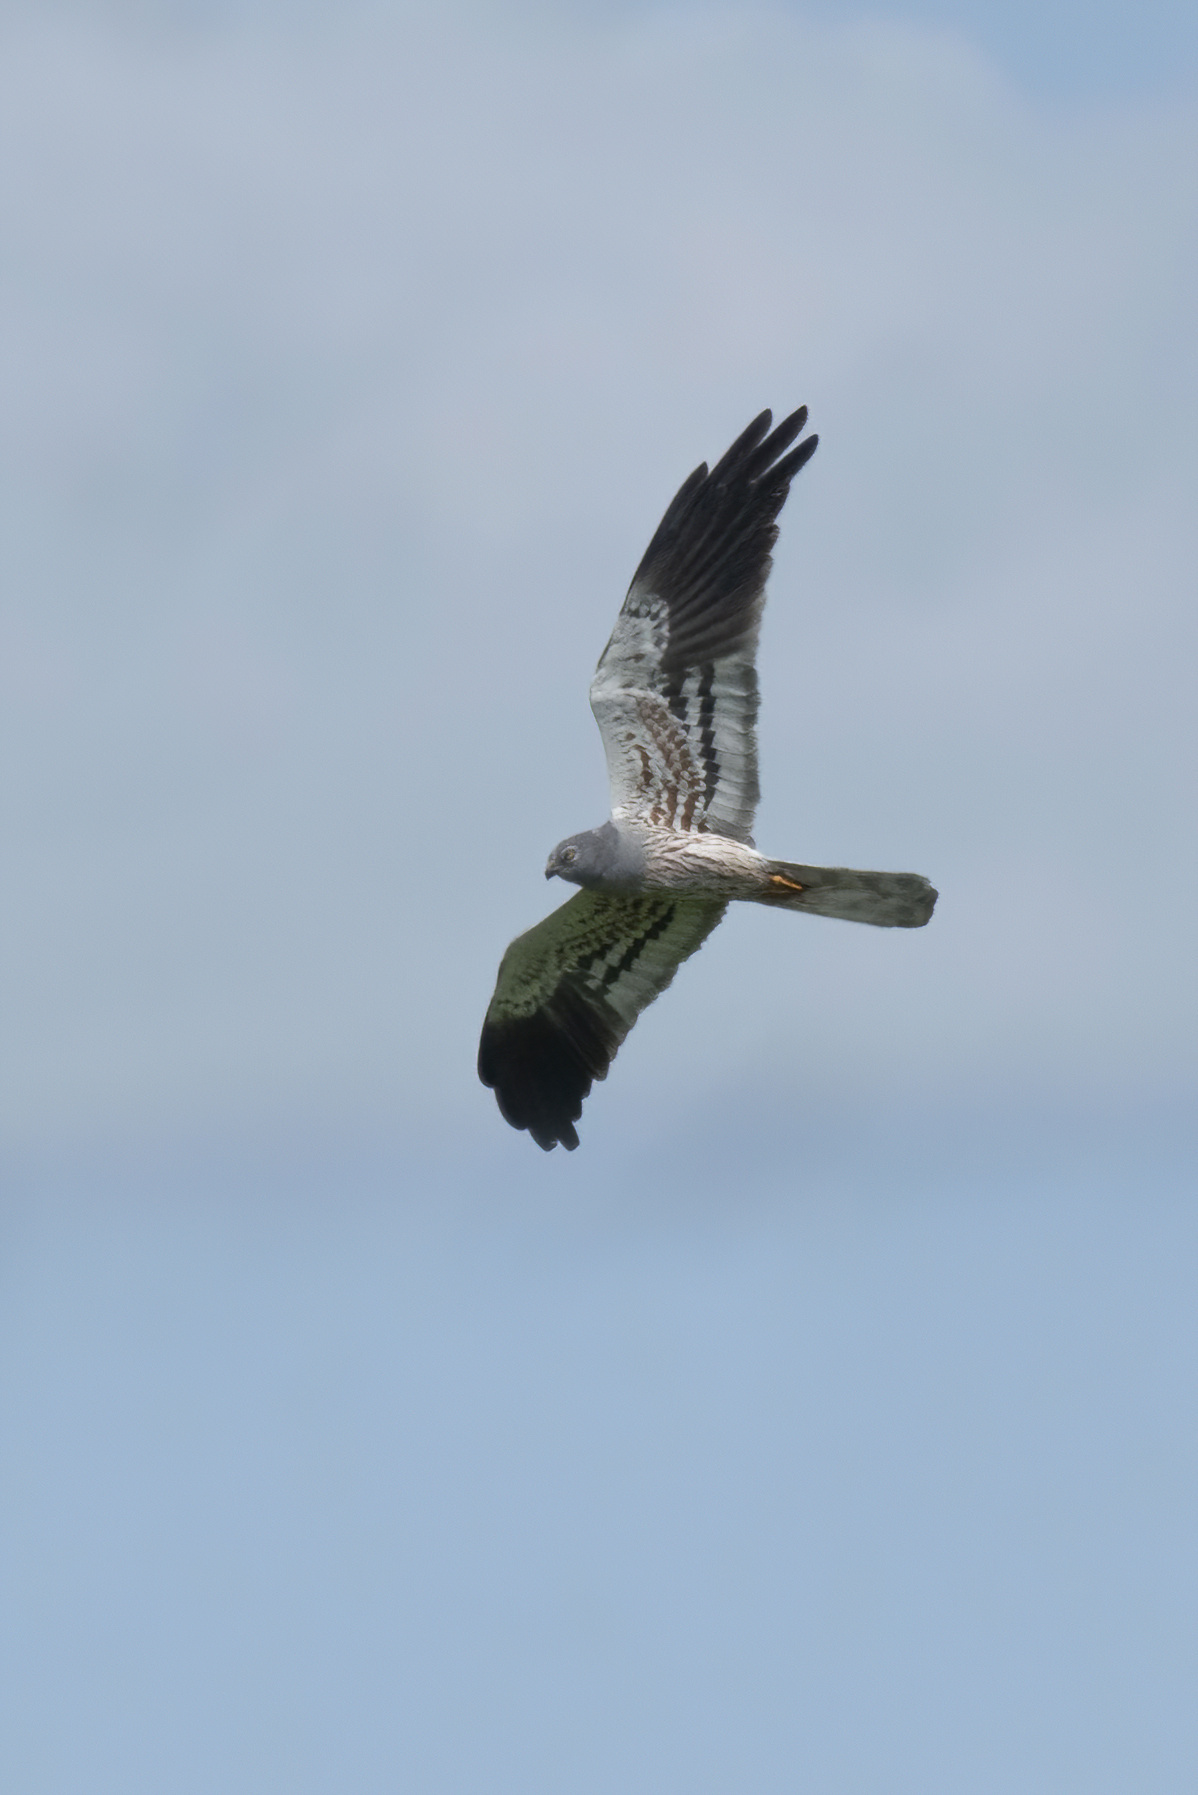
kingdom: Animalia
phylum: Chordata
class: Aves
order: Accipitriformes
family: Accipitridae
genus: Circus
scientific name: Circus pygargus
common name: Montagu's harrier
